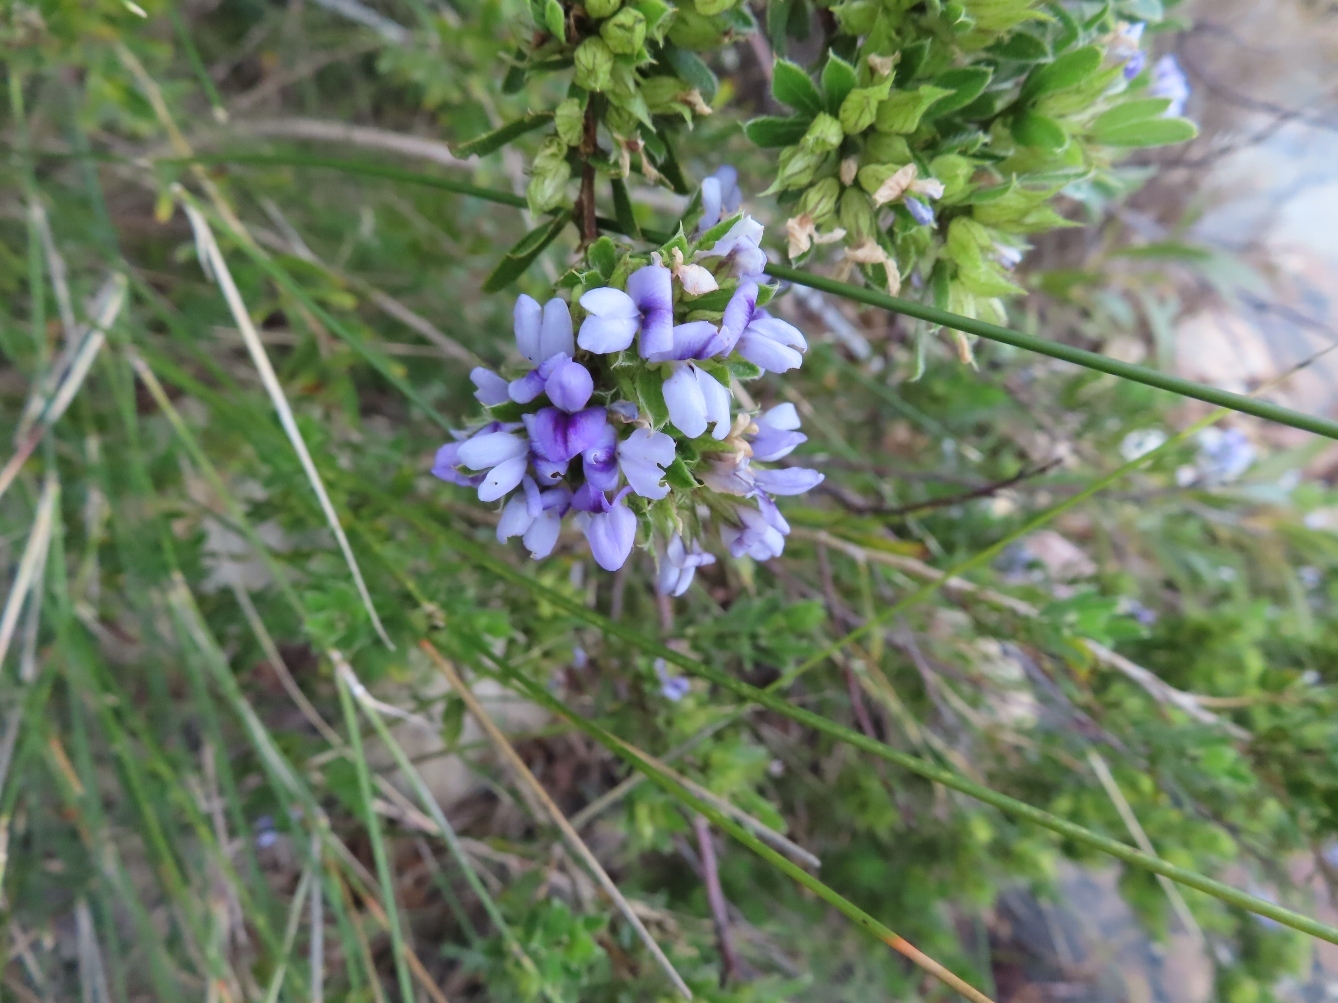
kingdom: Plantae
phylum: Tracheophyta
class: Magnoliopsida
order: Fabales
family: Fabaceae
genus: Psoralea
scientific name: Psoralea obliqua
